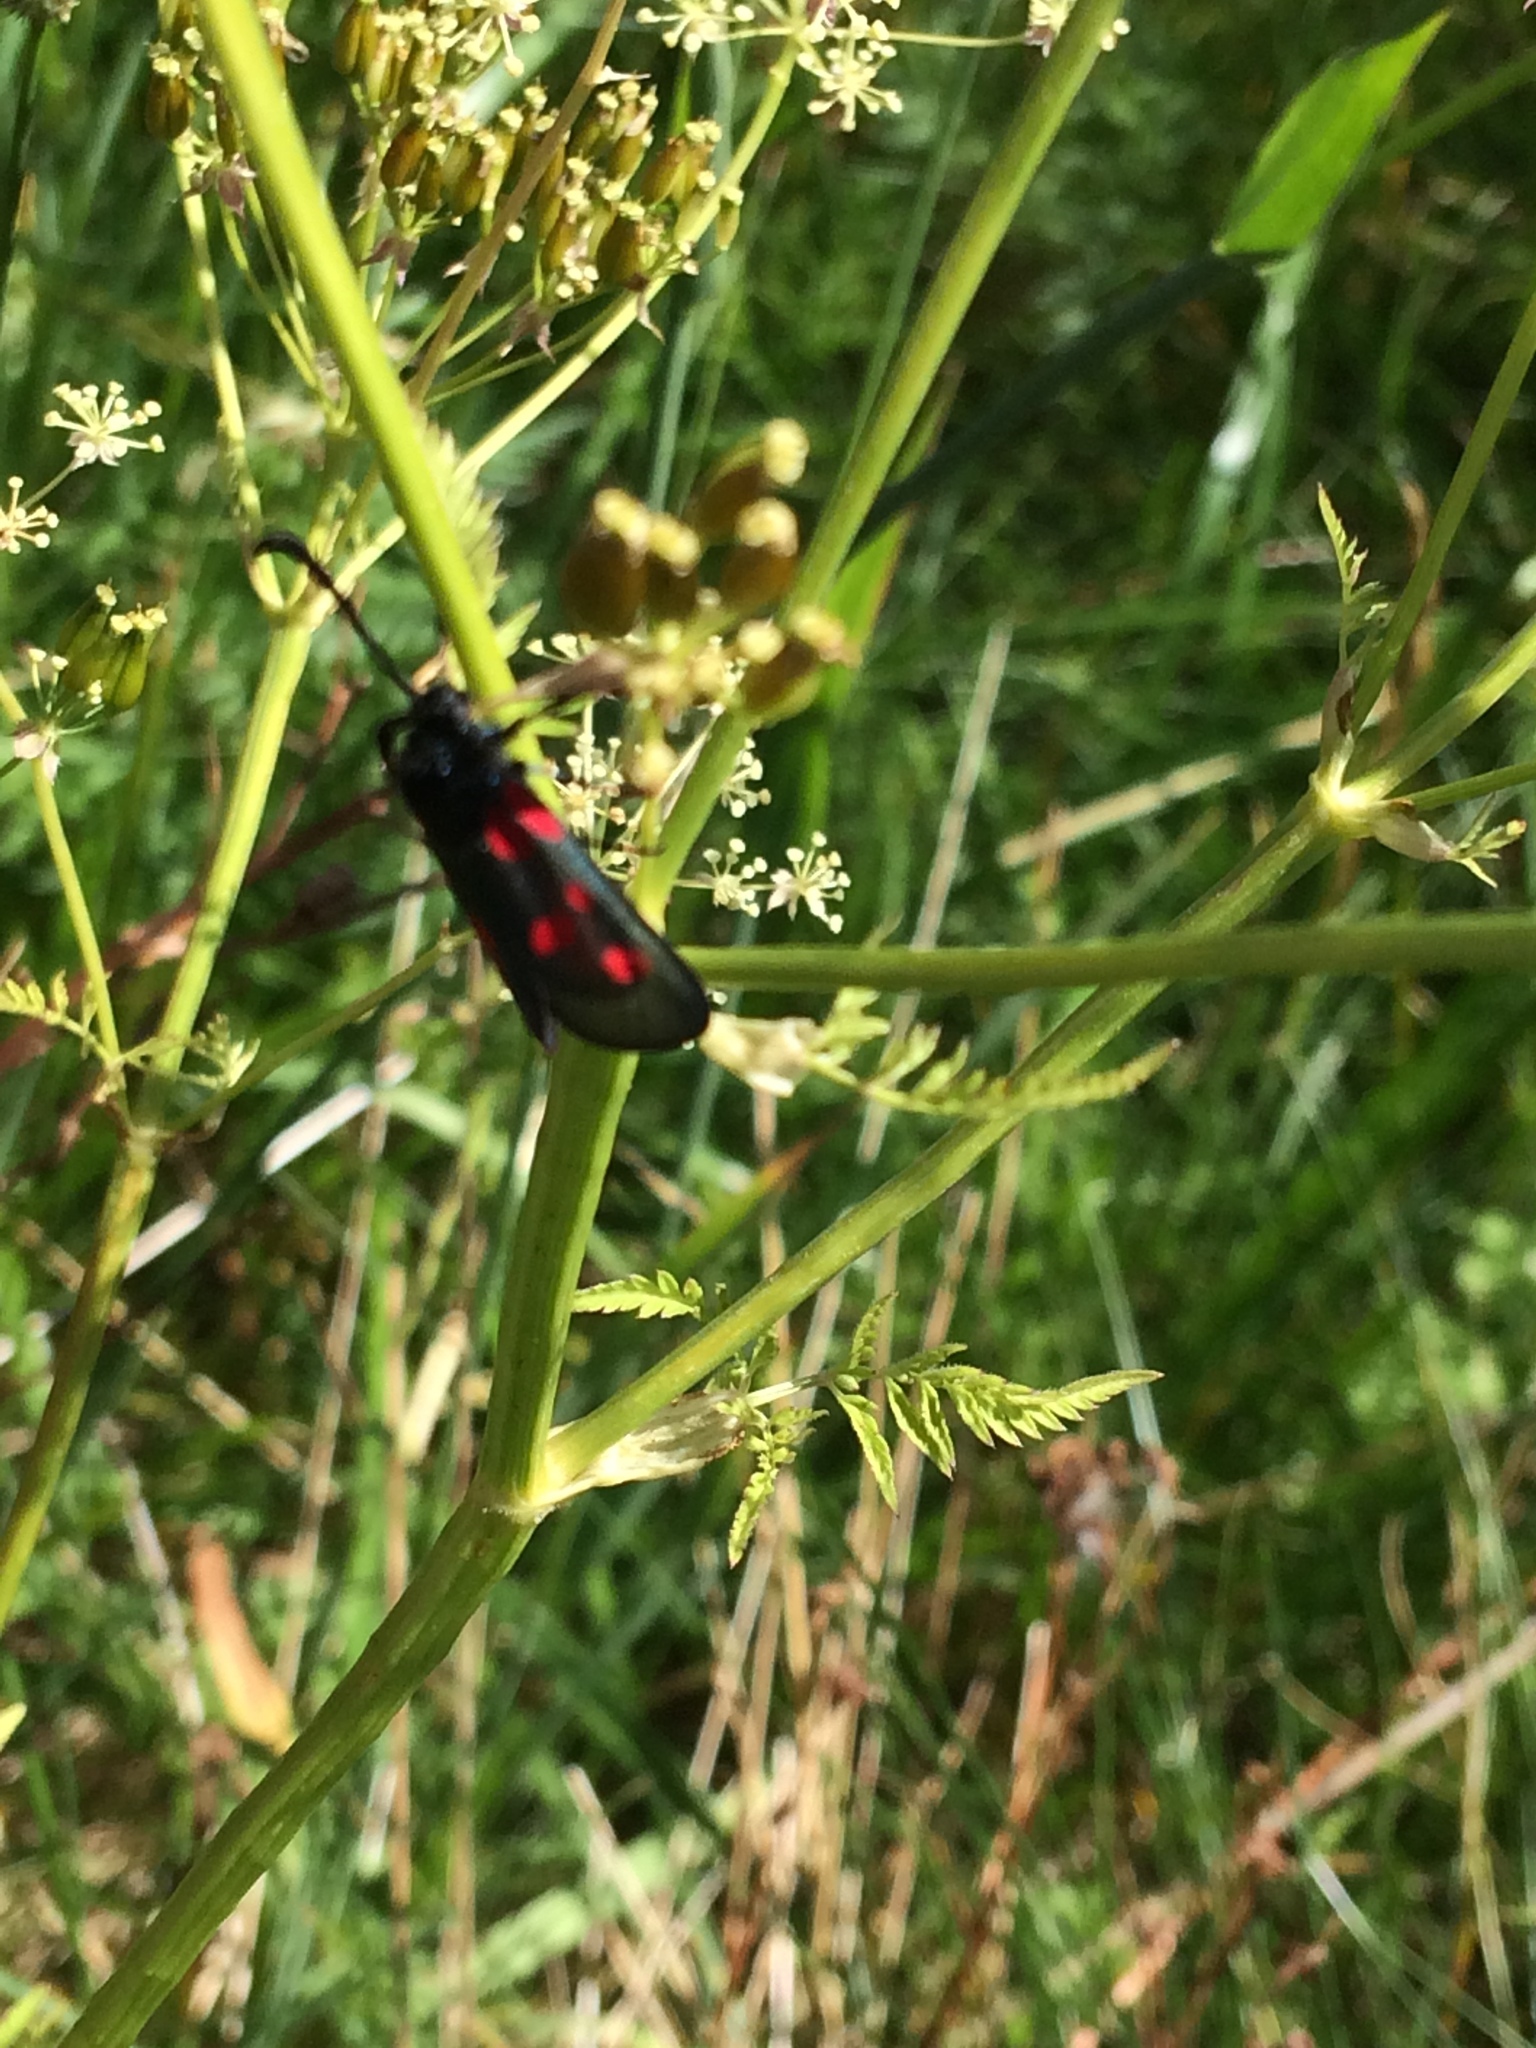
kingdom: Animalia
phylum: Arthropoda
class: Insecta
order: Lepidoptera
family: Zygaenidae
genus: Zygaena
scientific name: Zygaena viciae
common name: New forest burnet
